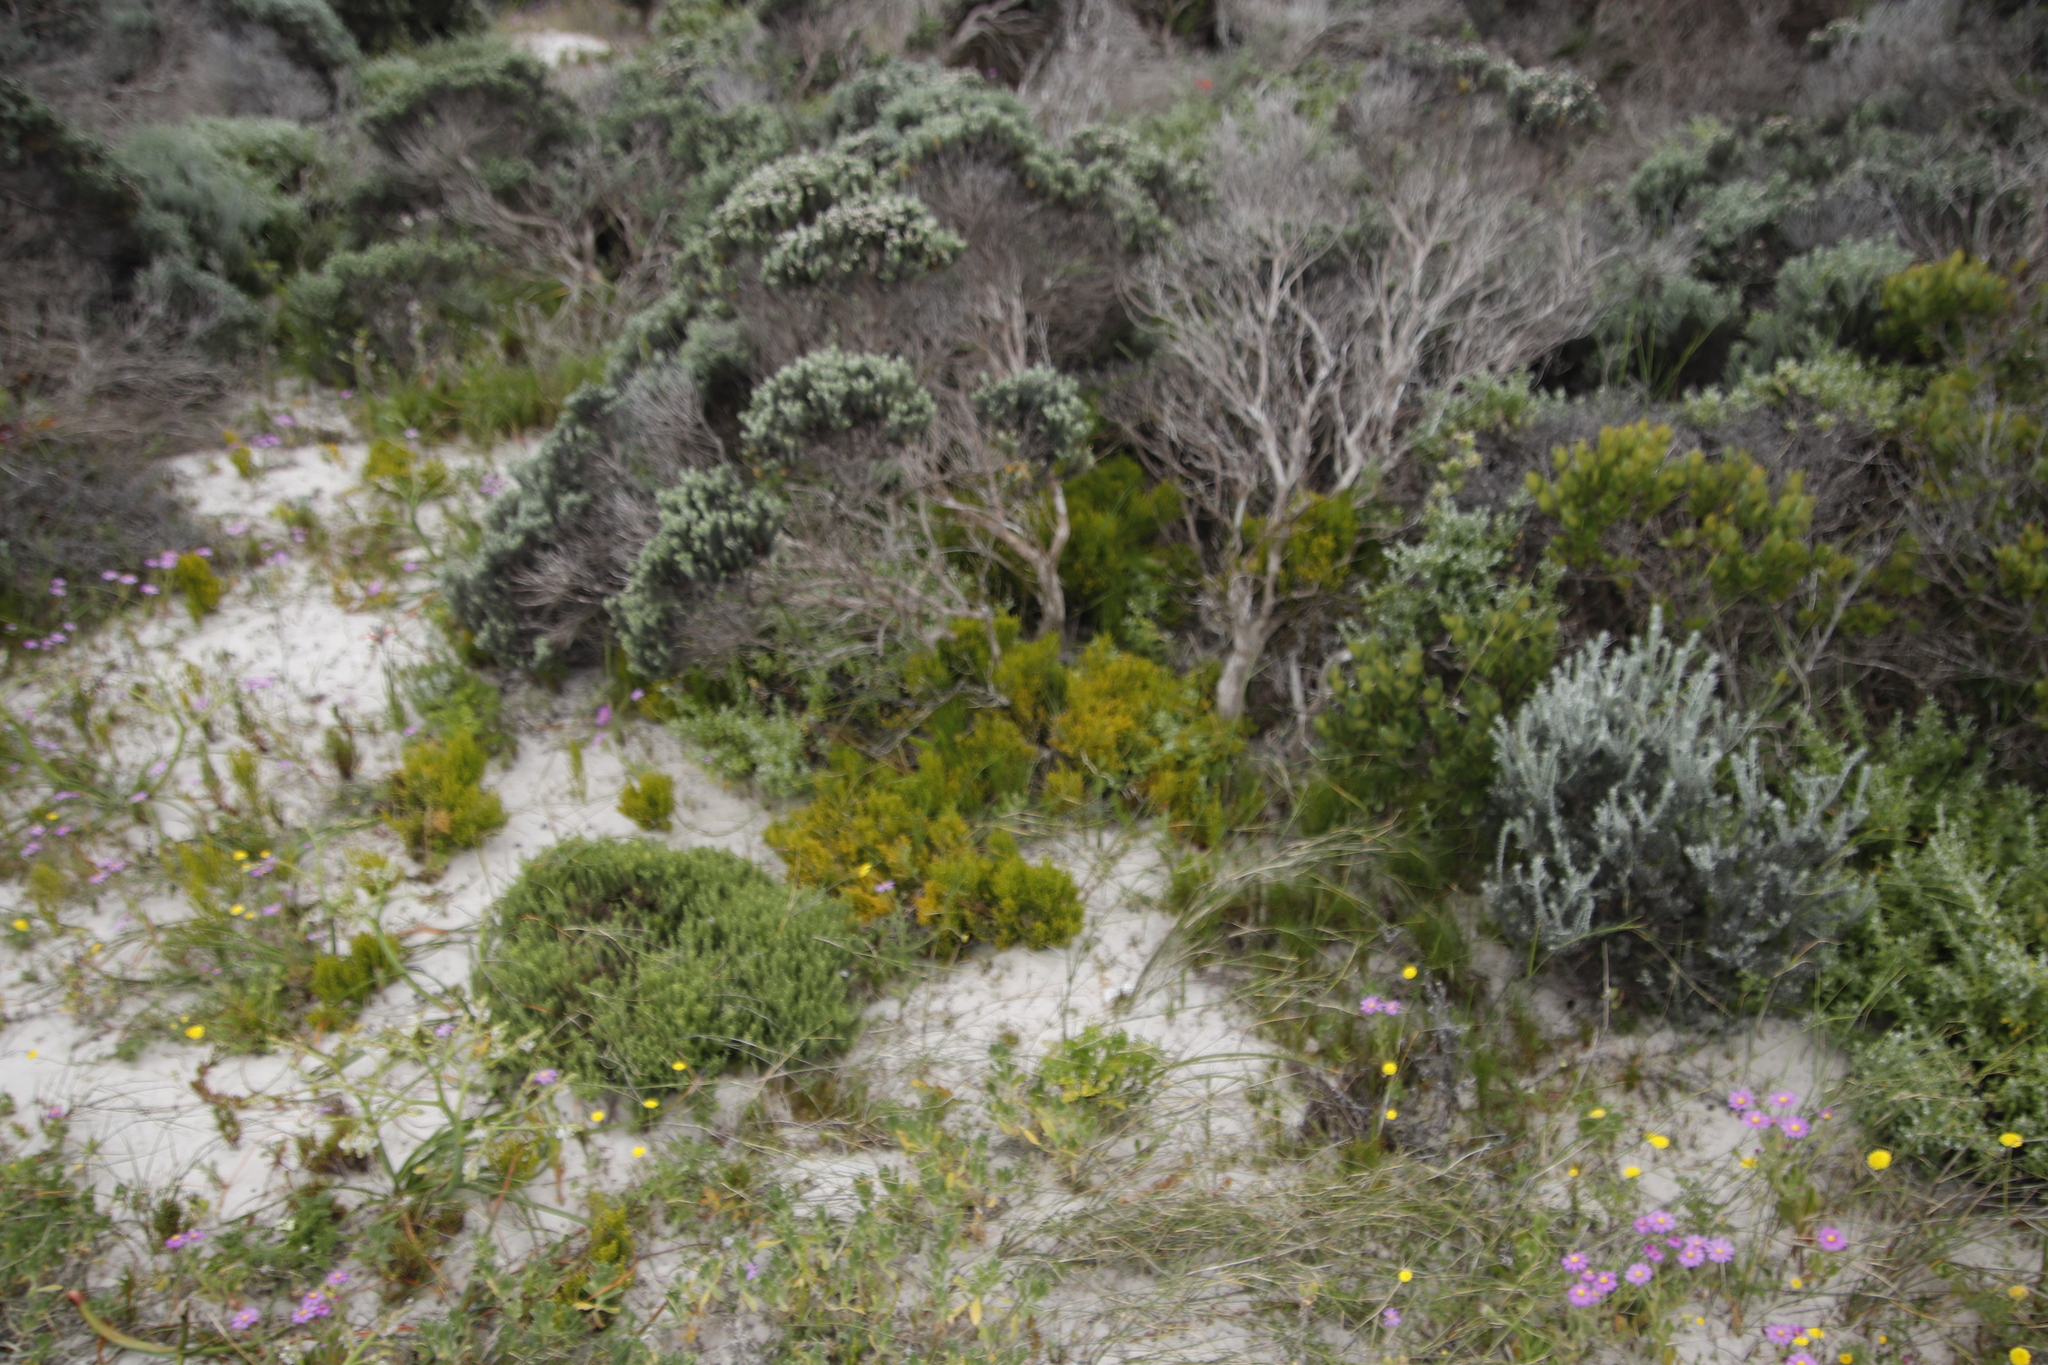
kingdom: Plantae
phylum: Tracheophyta
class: Magnoliopsida
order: Santalales
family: Thesiaceae
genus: Thesium
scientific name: Thesium fragile
